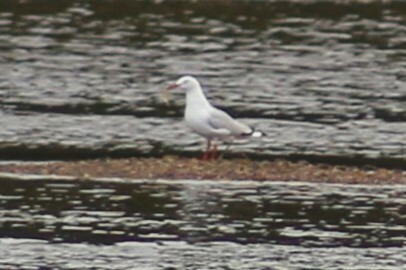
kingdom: Animalia
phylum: Chordata
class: Aves
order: Charadriiformes
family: Laridae
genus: Chroicocephalus
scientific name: Chroicocephalus novaehollandiae
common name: Silver gull
